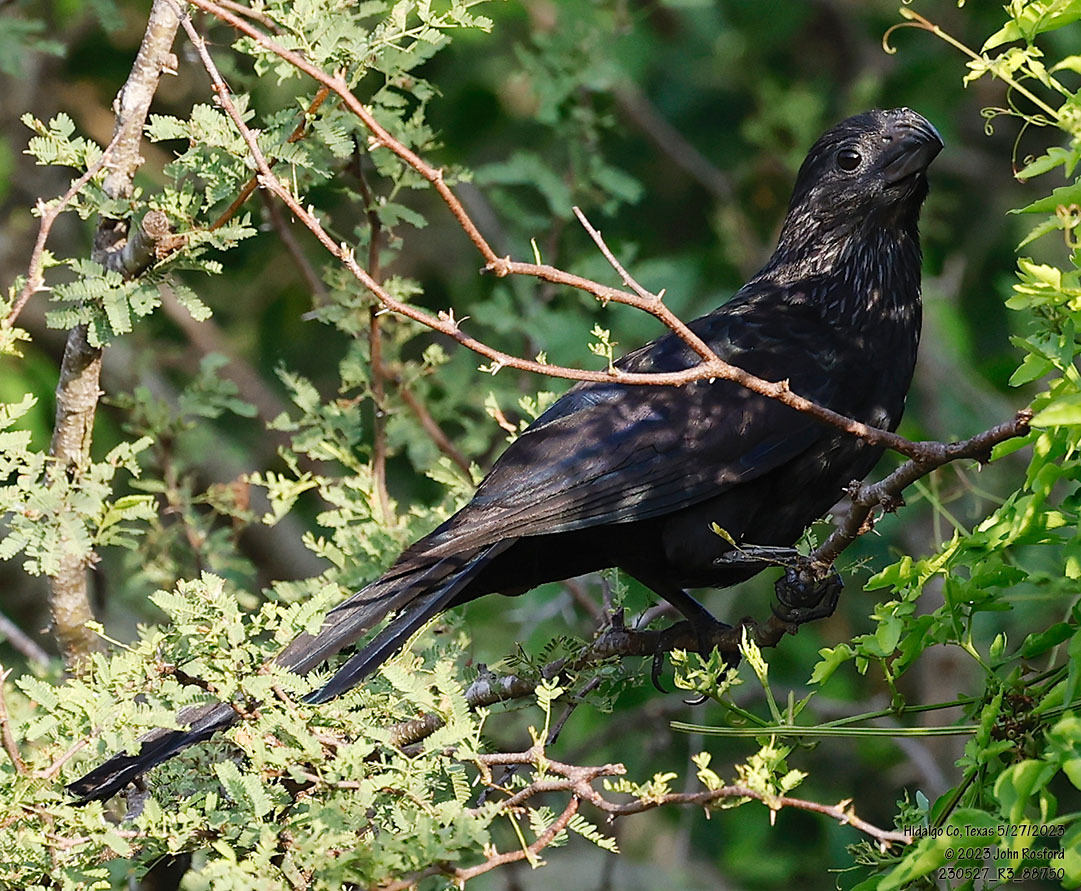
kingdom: Animalia
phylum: Chordata
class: Aves
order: Cuculiformes
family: Cuculidae
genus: Crotophaga
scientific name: Crotophaga sulcirostris
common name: Groove-billed ani
